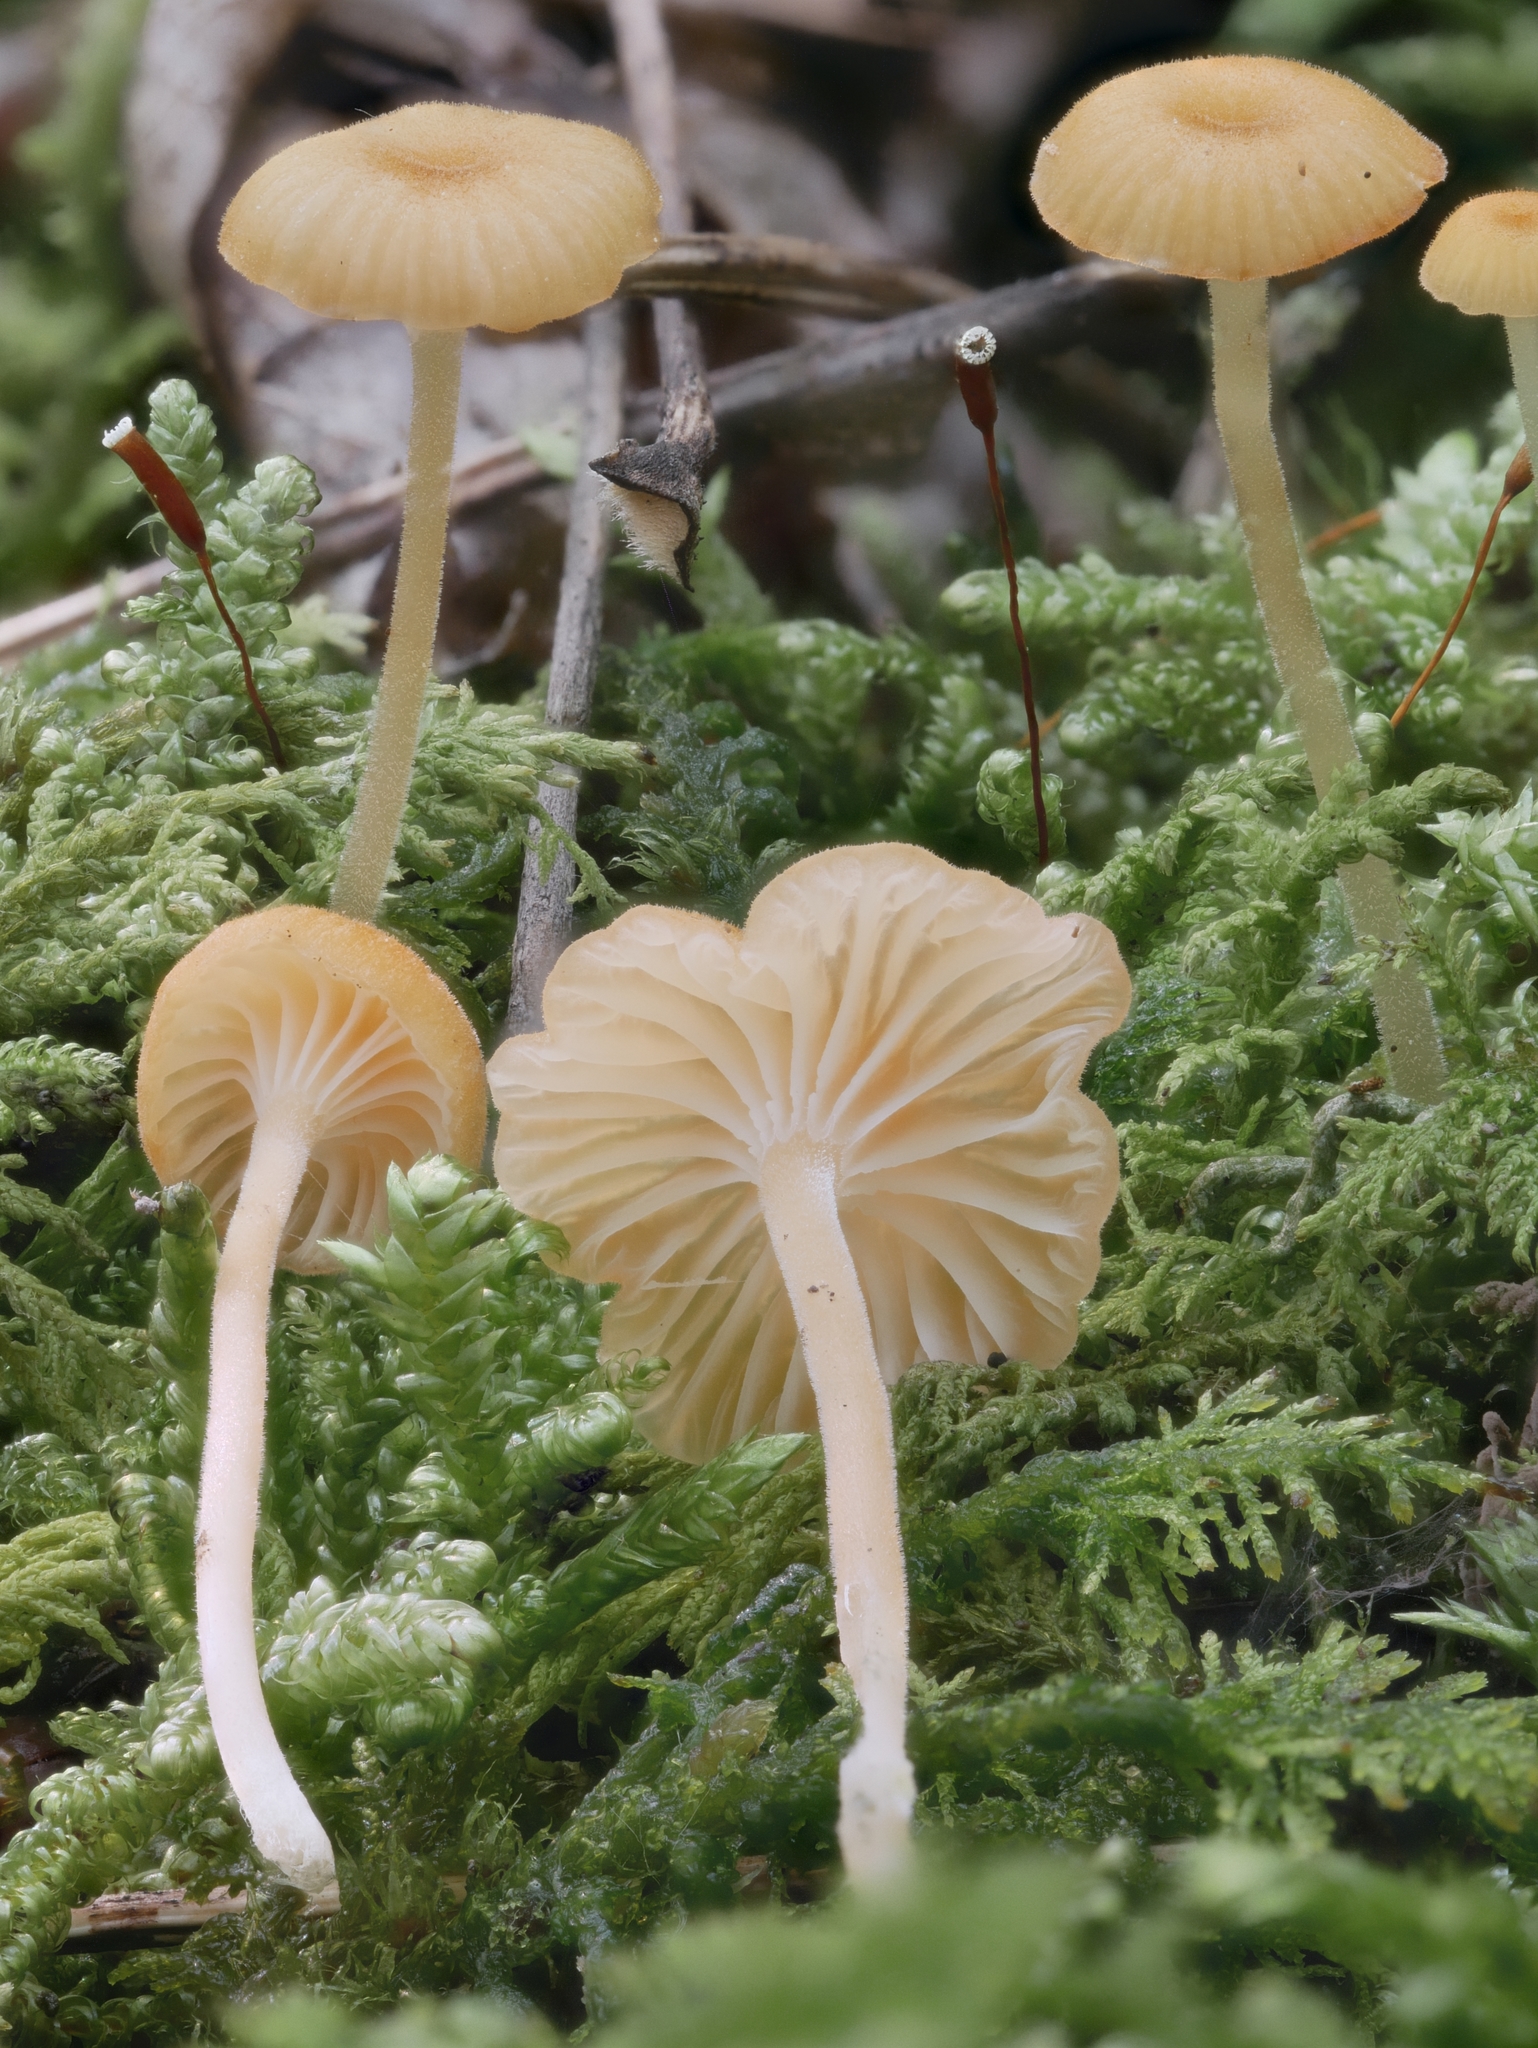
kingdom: Fungi
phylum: Basidiomycota
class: Agaricomycetes
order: Hymenochaetales
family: Rickenellaceae
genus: Rickenella
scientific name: Rickenella fibula
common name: Orange mosscap
